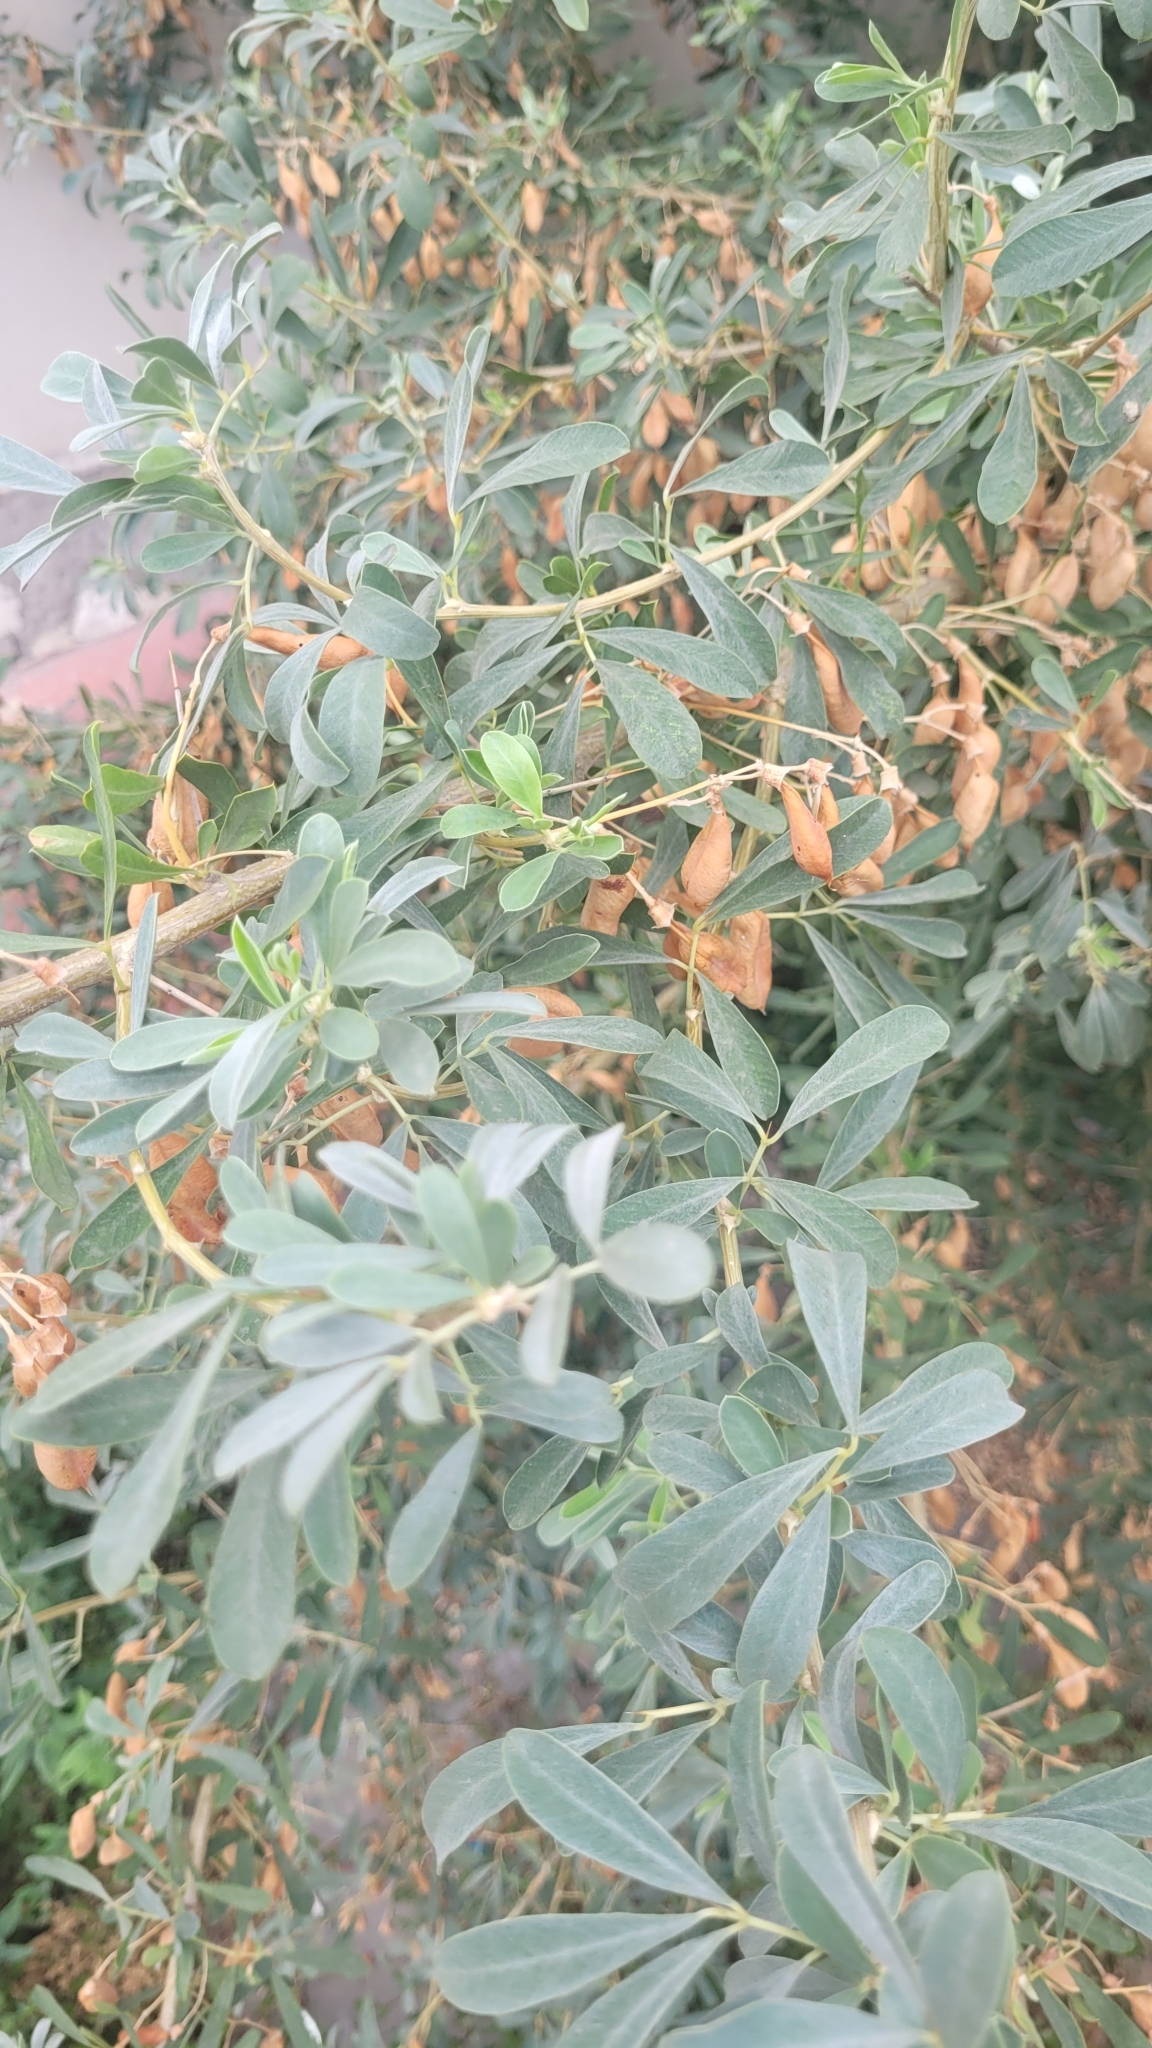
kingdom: Plantae
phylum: Tracheophyta
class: Magnoliopsida
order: Fabales
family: Fabaceae
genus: Caragana
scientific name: Caragana halodendron
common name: Siberian salt-tree
